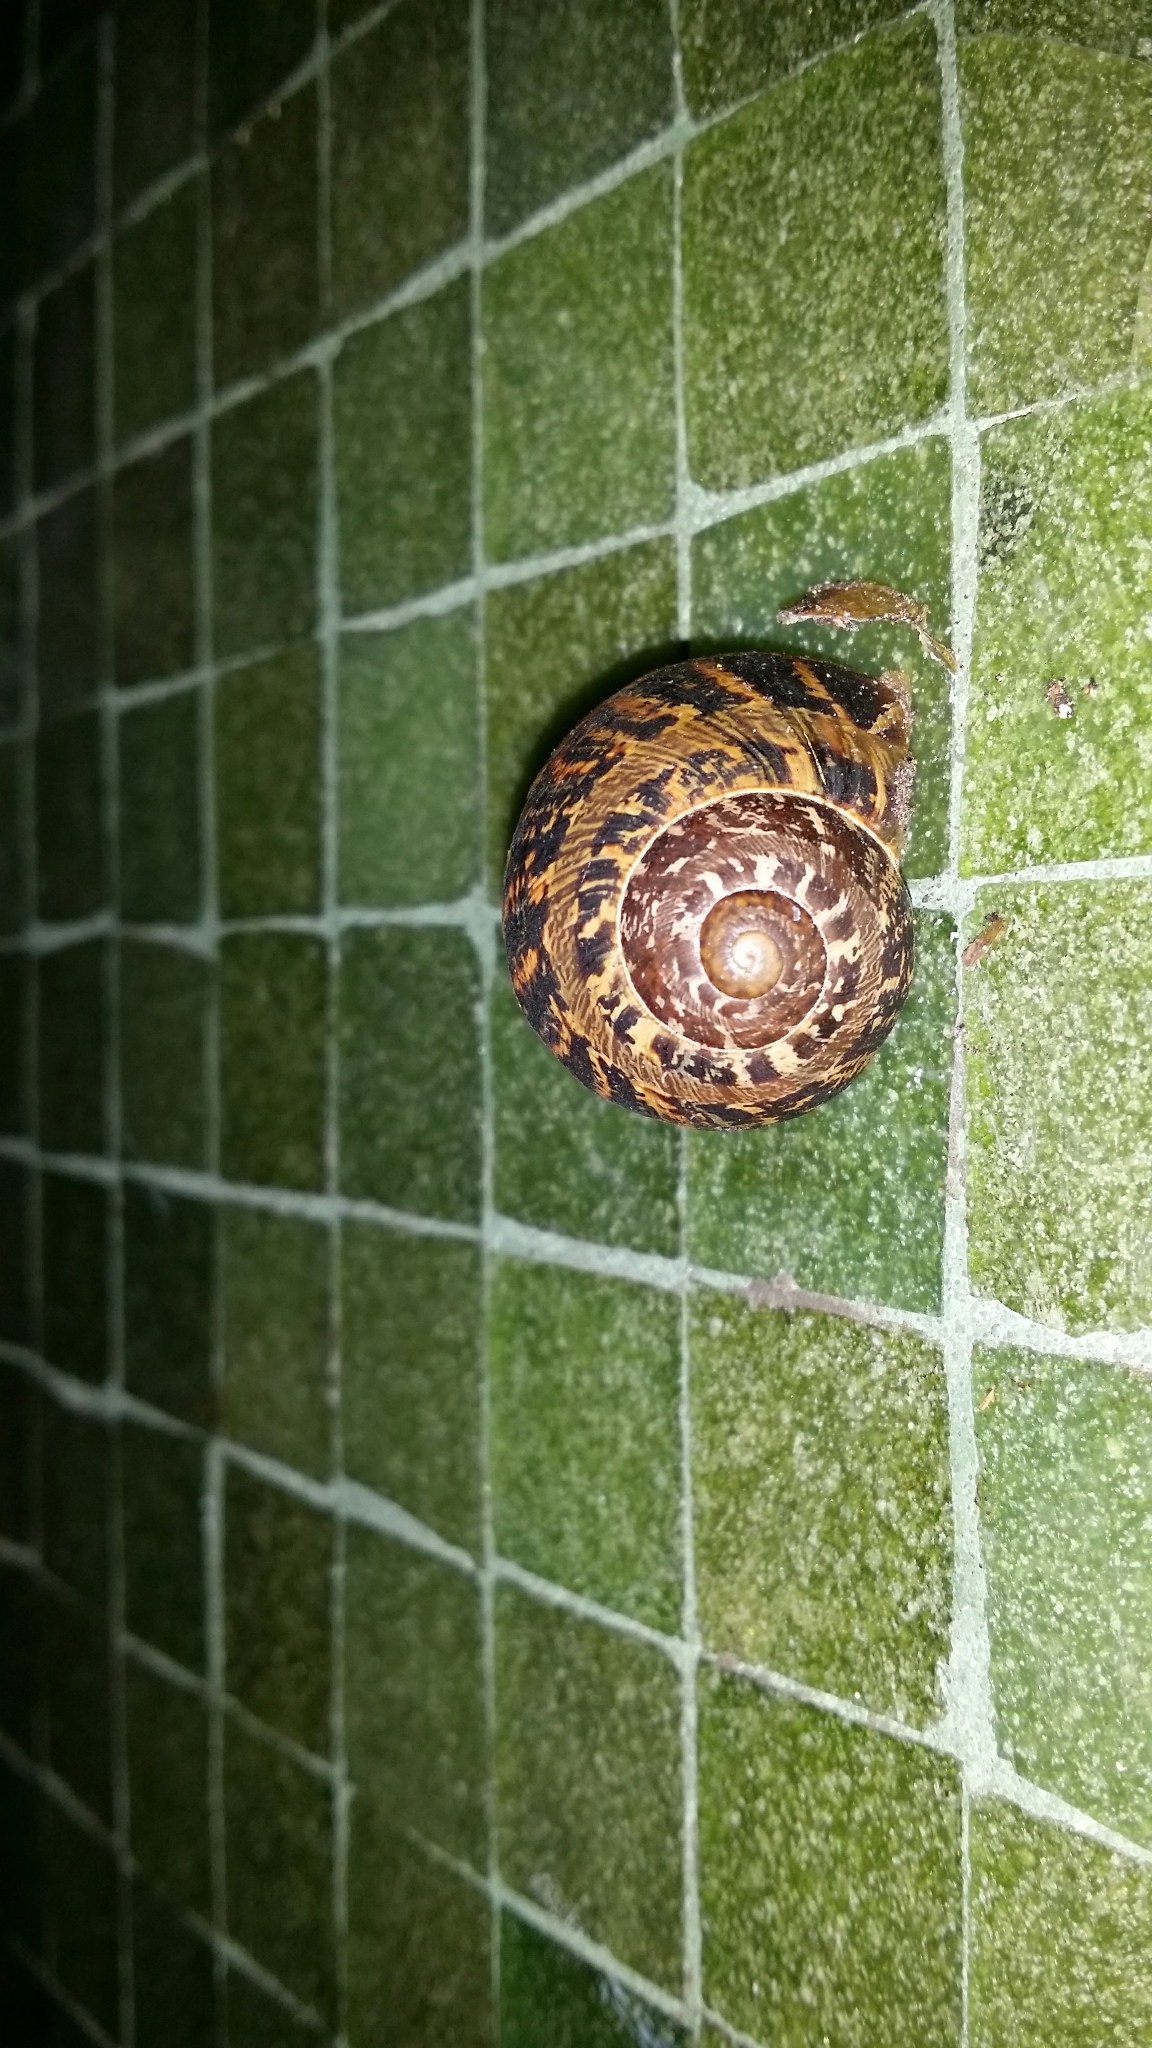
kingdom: Animalia
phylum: Mollusca
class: Gastropoda
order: Stylommatophora
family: Helicidae
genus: Cornu
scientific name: Cornu aspersum
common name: Brown garden snail
